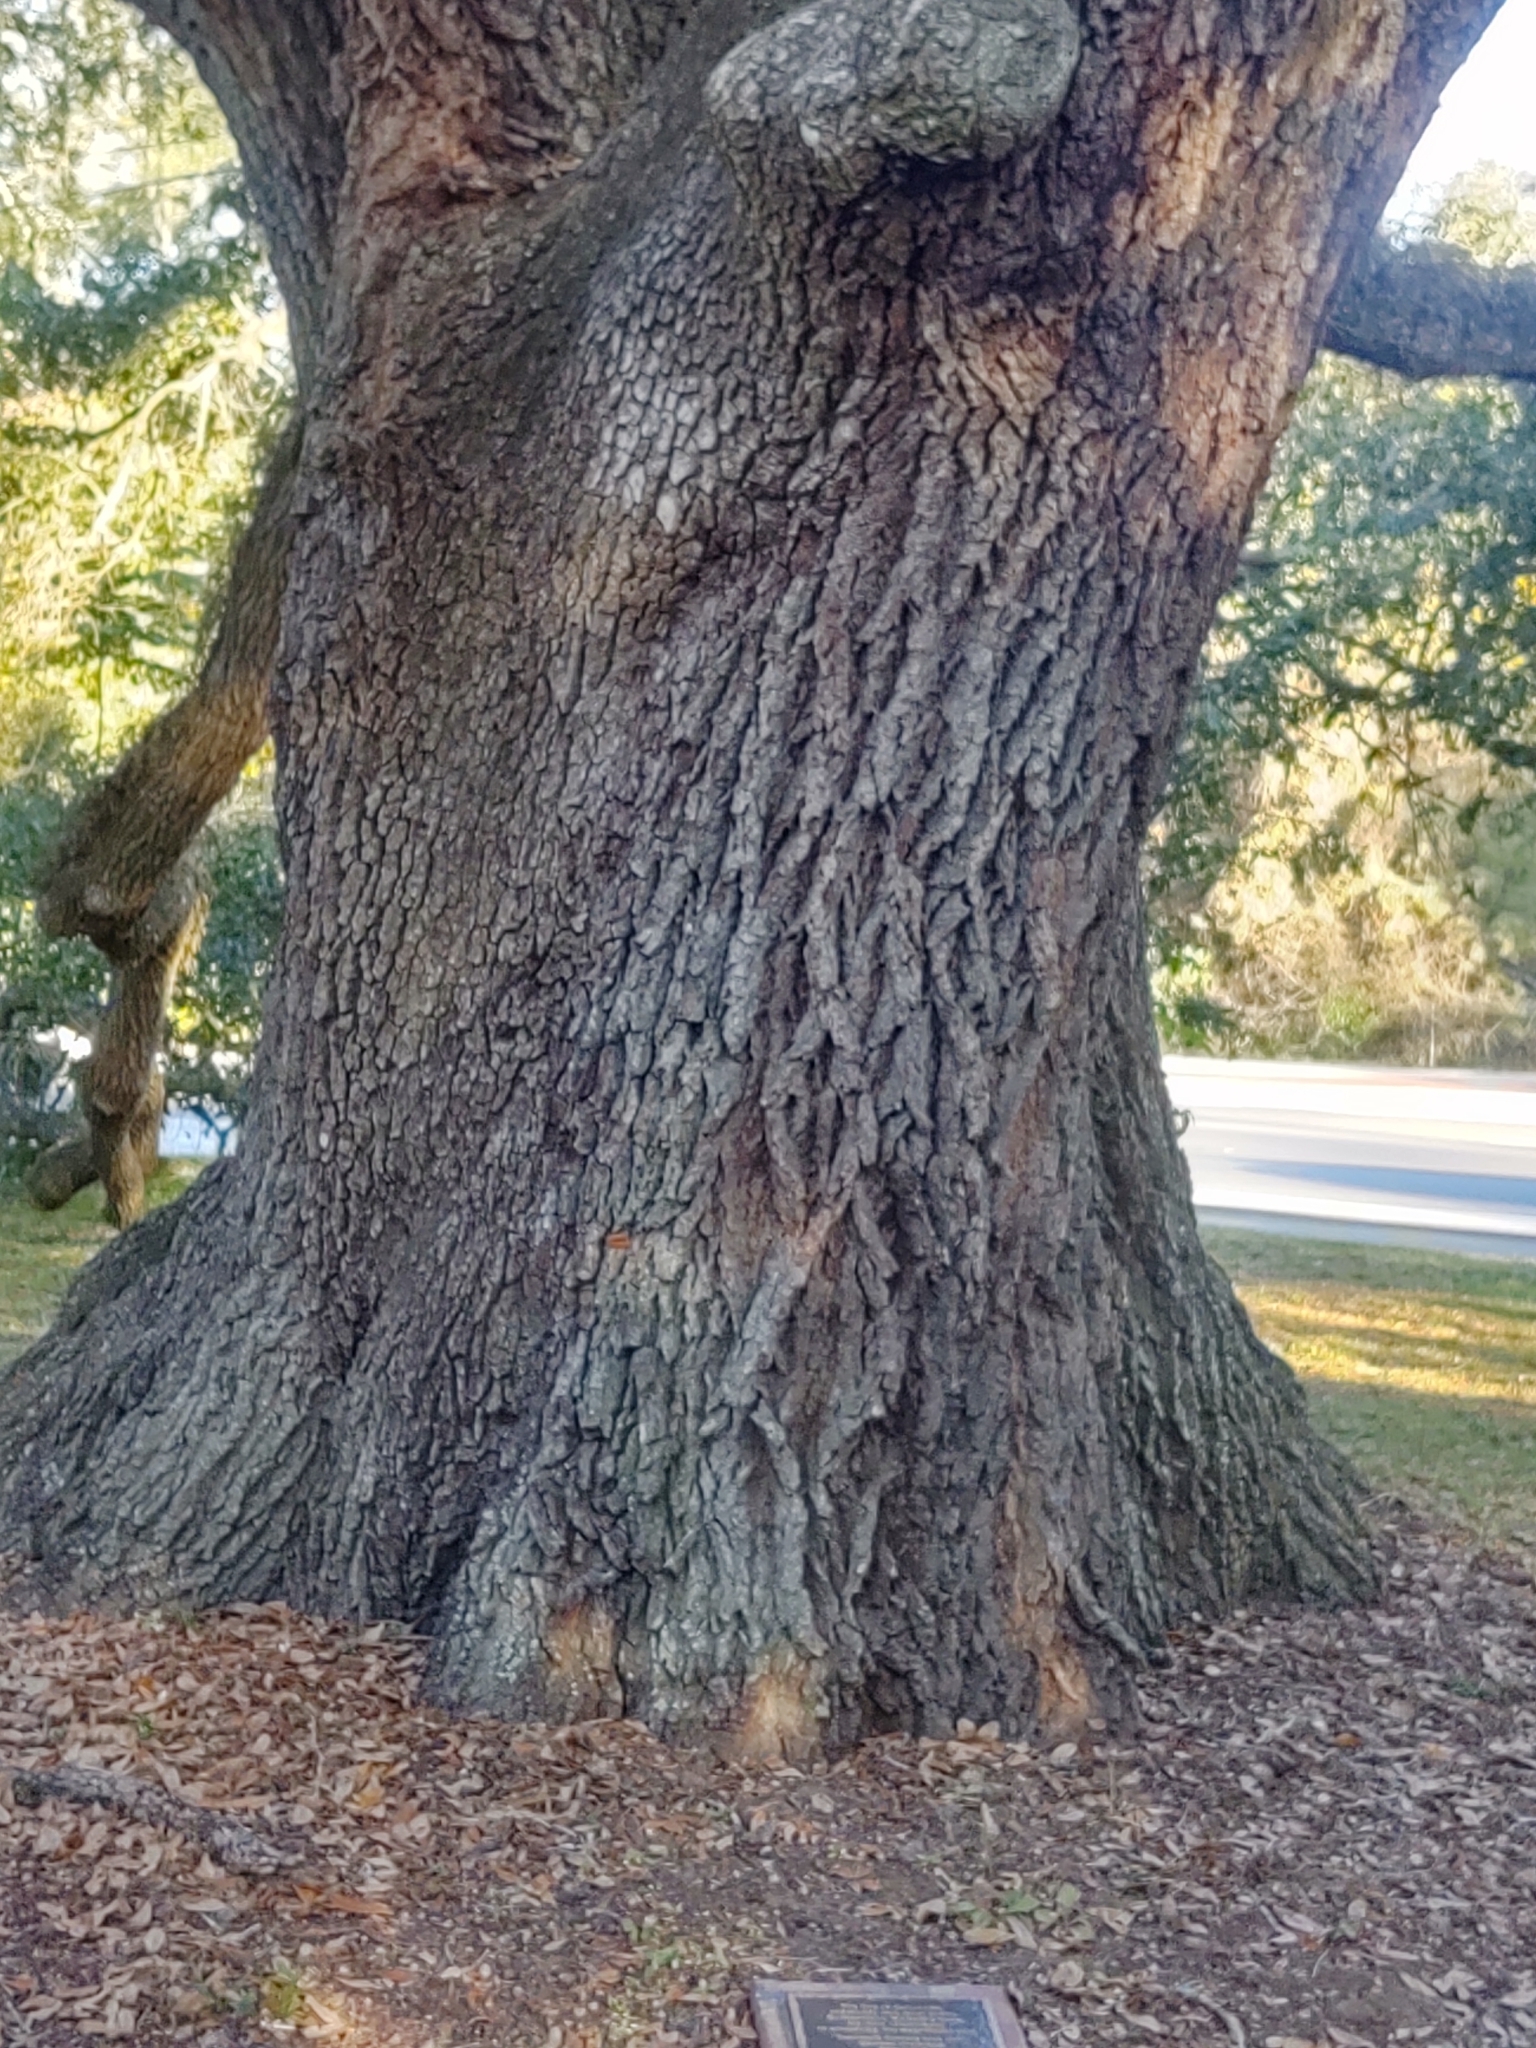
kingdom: Plantae
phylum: Tracheophyta
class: Magnoliopsida
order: Fagales
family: Fagaceae
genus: Quercus
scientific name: Quercus virginiana
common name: Southern live oak
